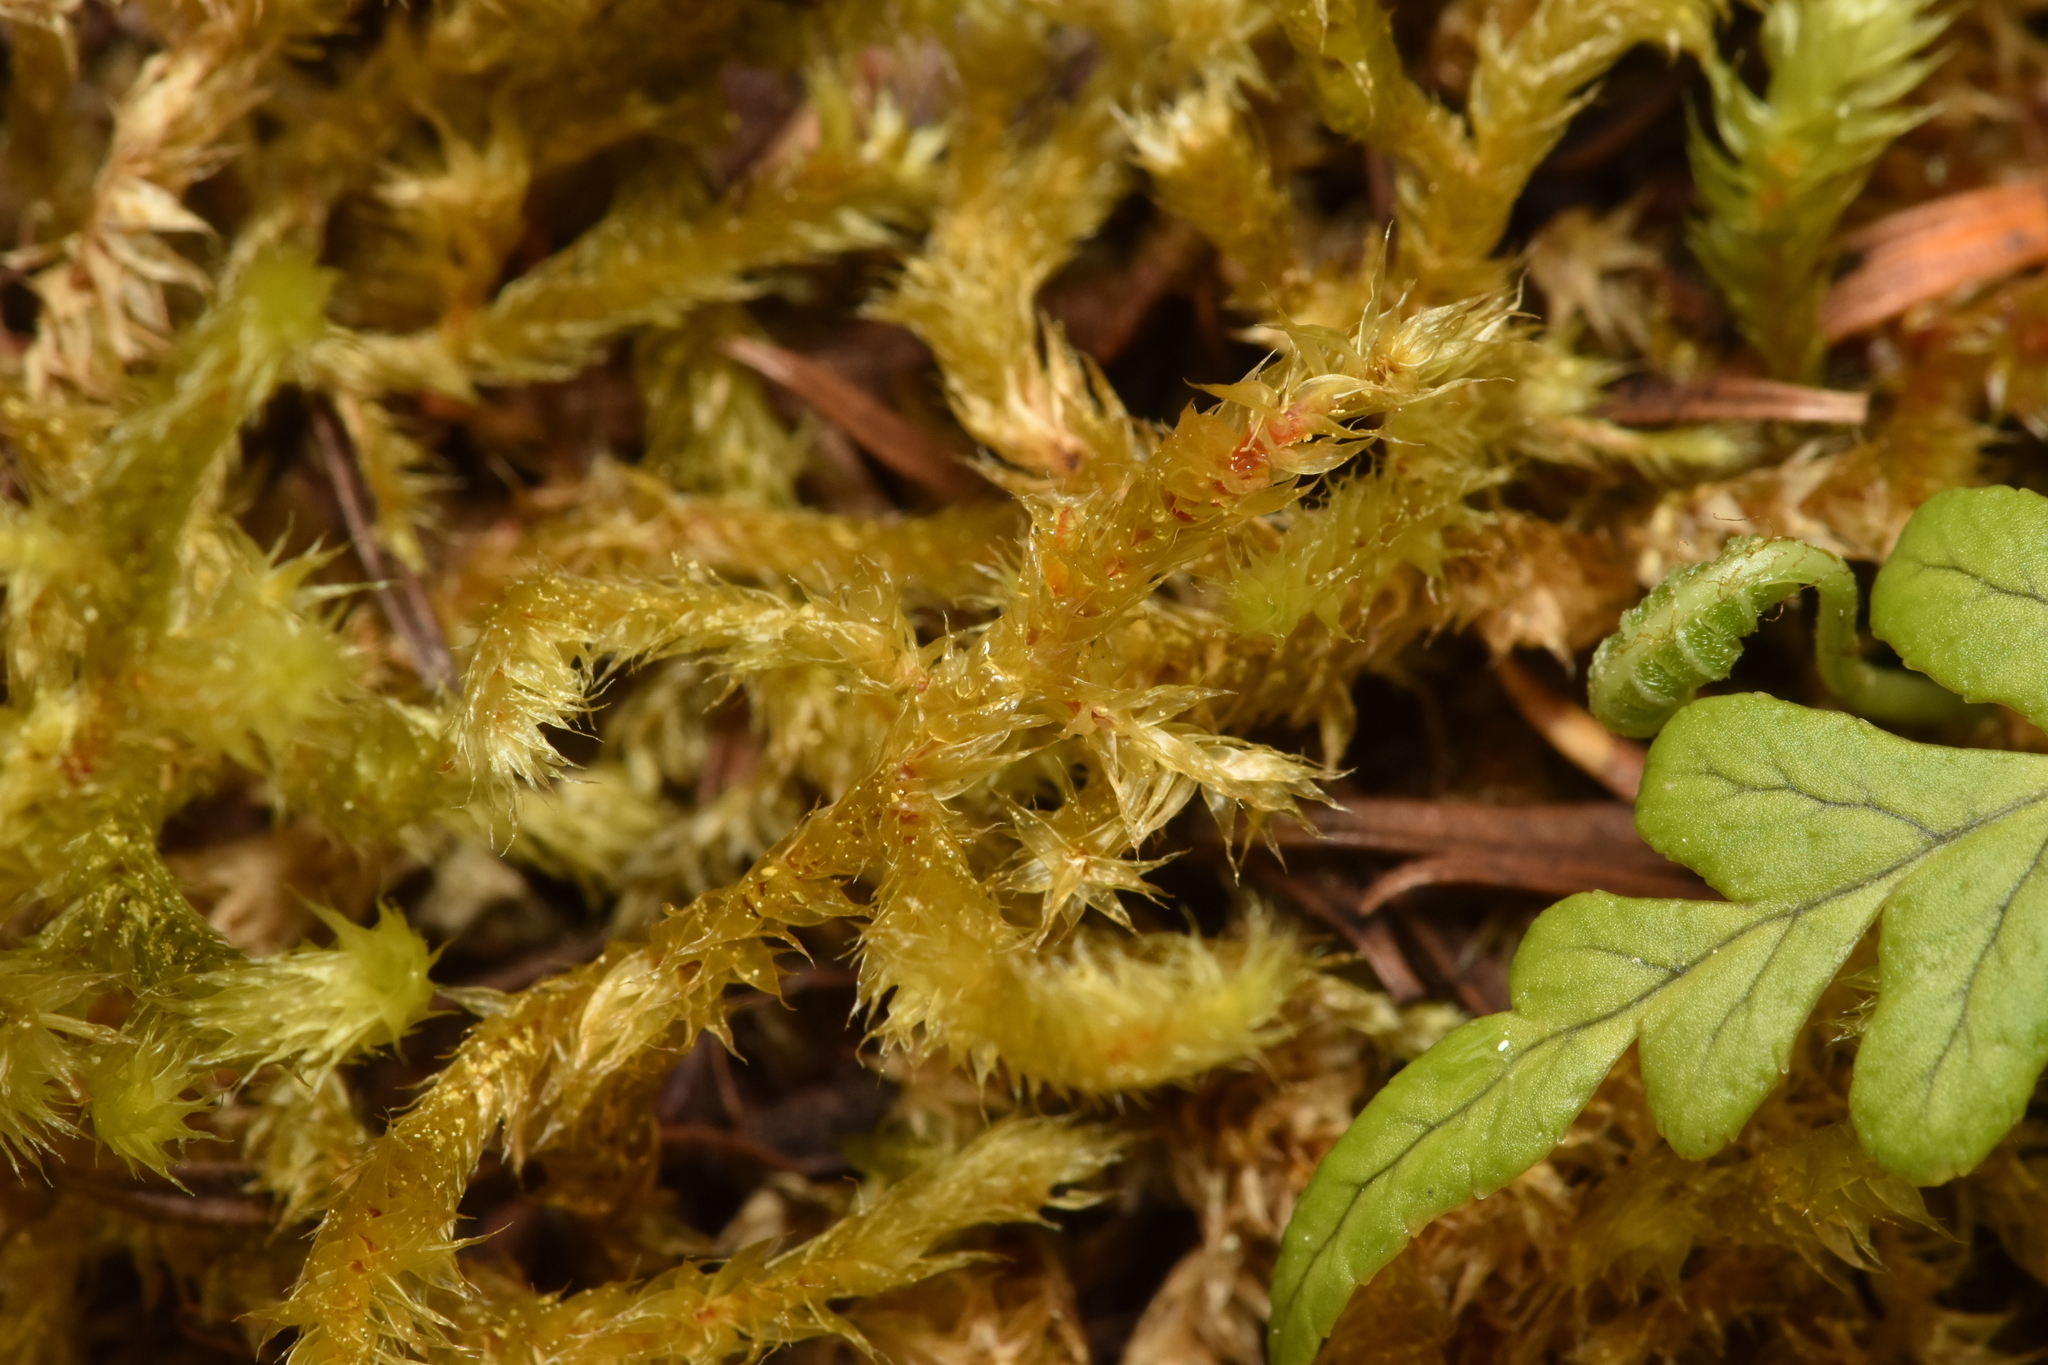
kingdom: Plantae
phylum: Bryophyta
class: Bryopsida
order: Hypnales
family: Antitrichiaceae
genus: Antitrichia
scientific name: Antitrichia curtipendula
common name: Pendulous wing-moss
